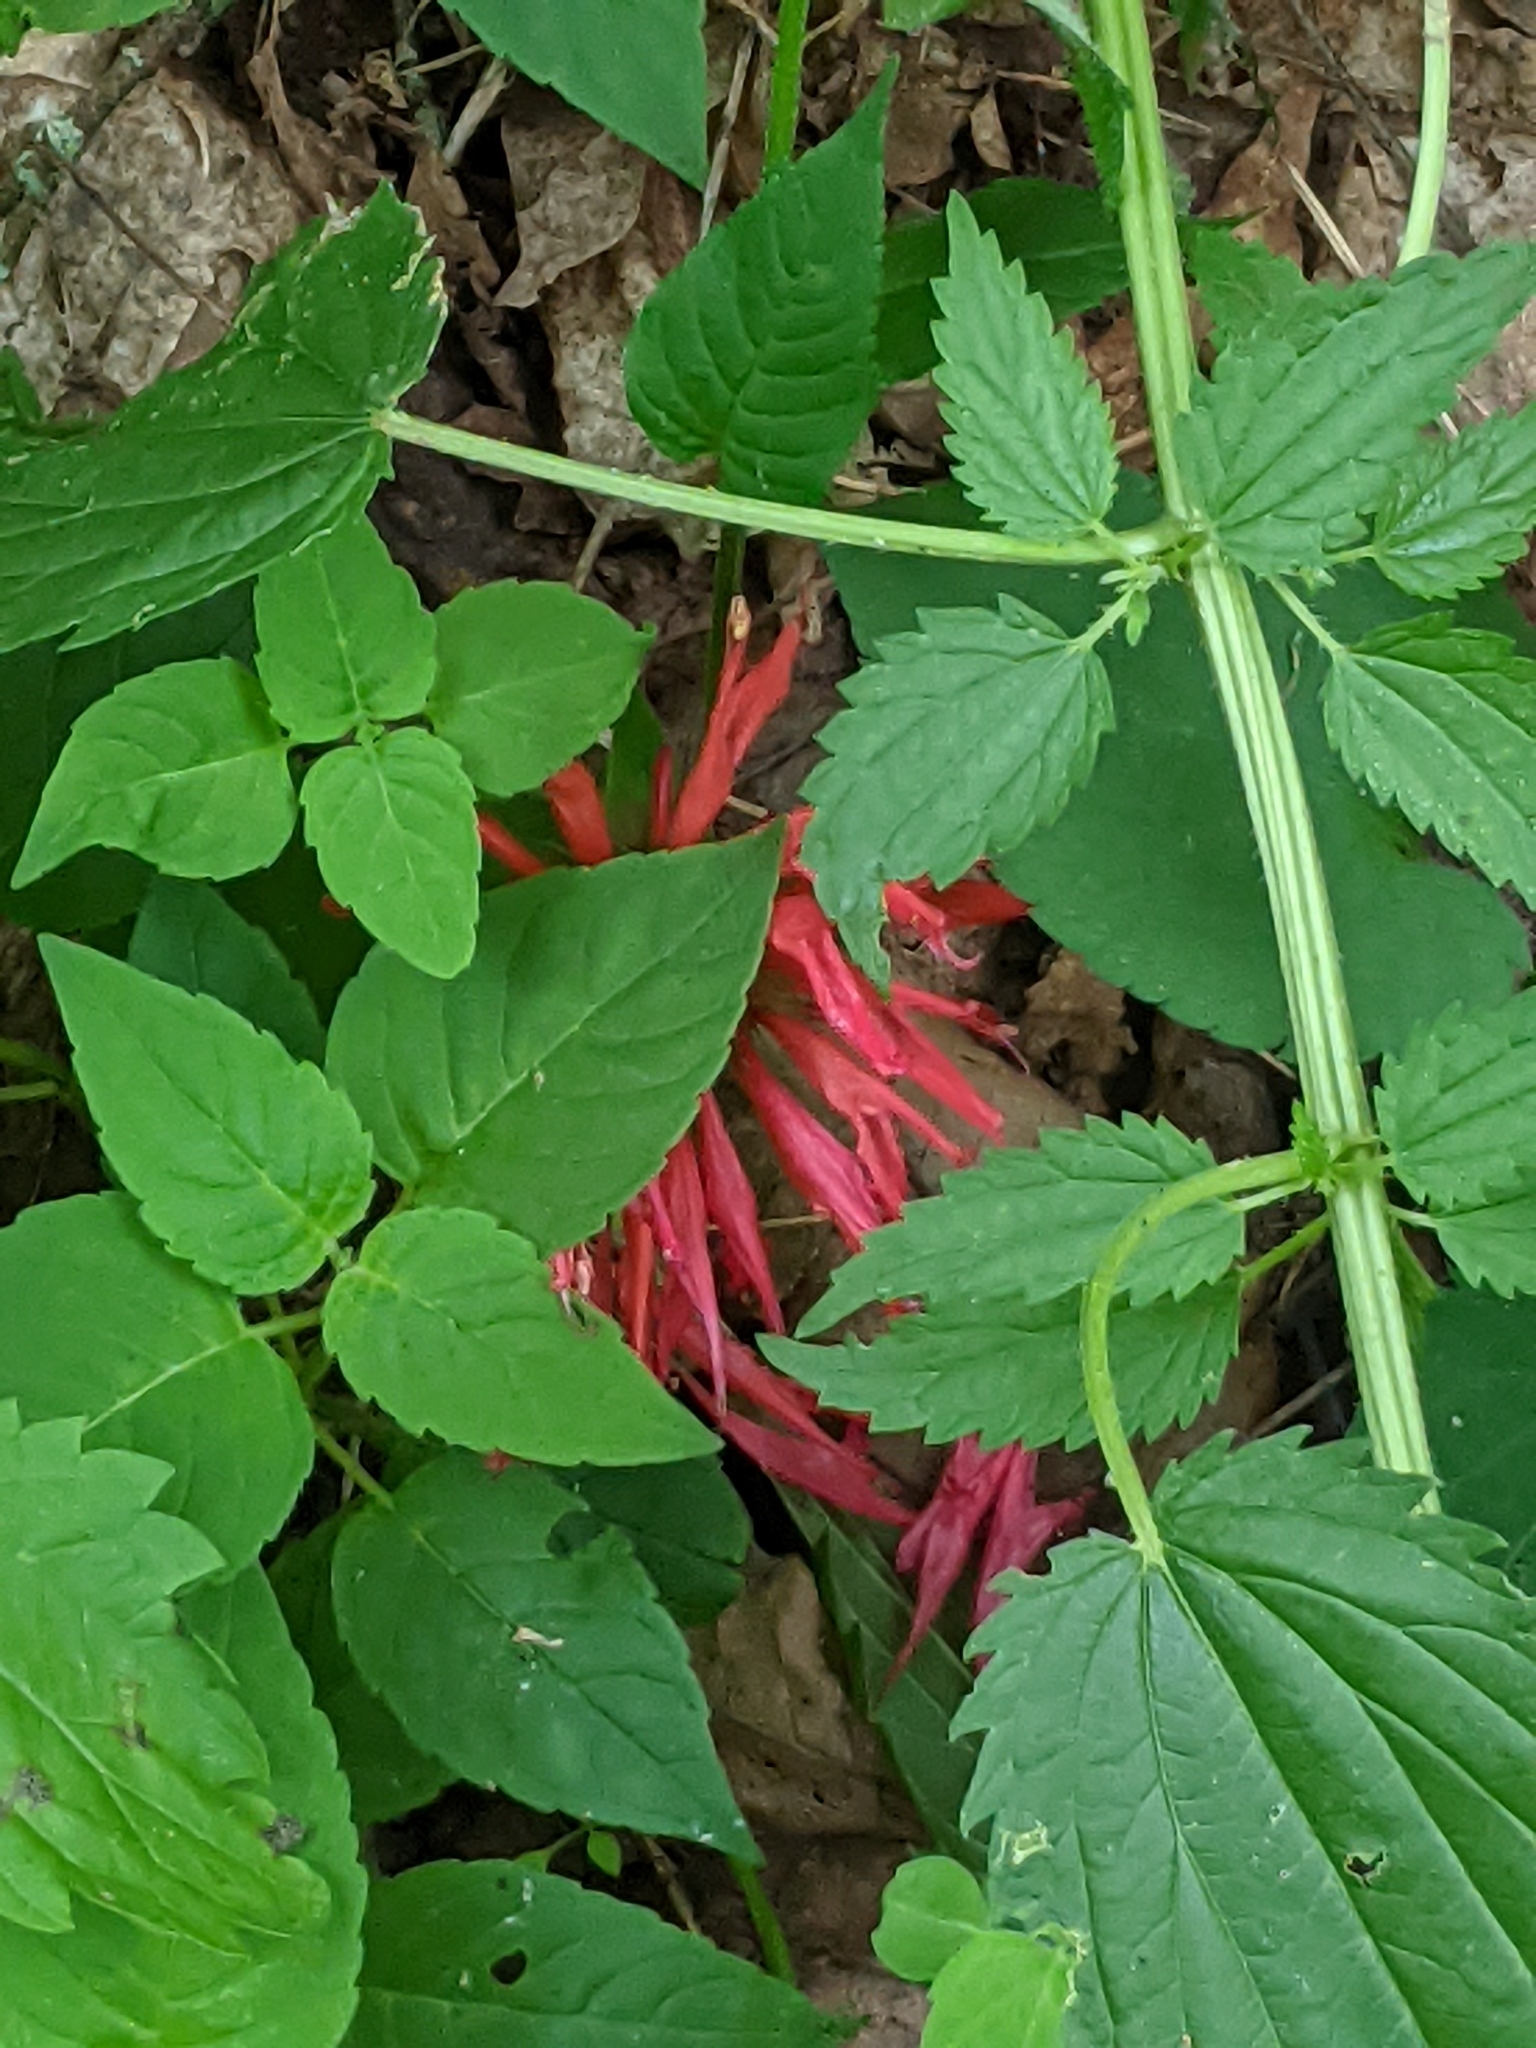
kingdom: Plantae
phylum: Tracheophyta
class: Magnoliopsida
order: Rosales
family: Urticaceae
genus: Urtica
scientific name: Urtica gracilis
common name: Slender stinging nettle
